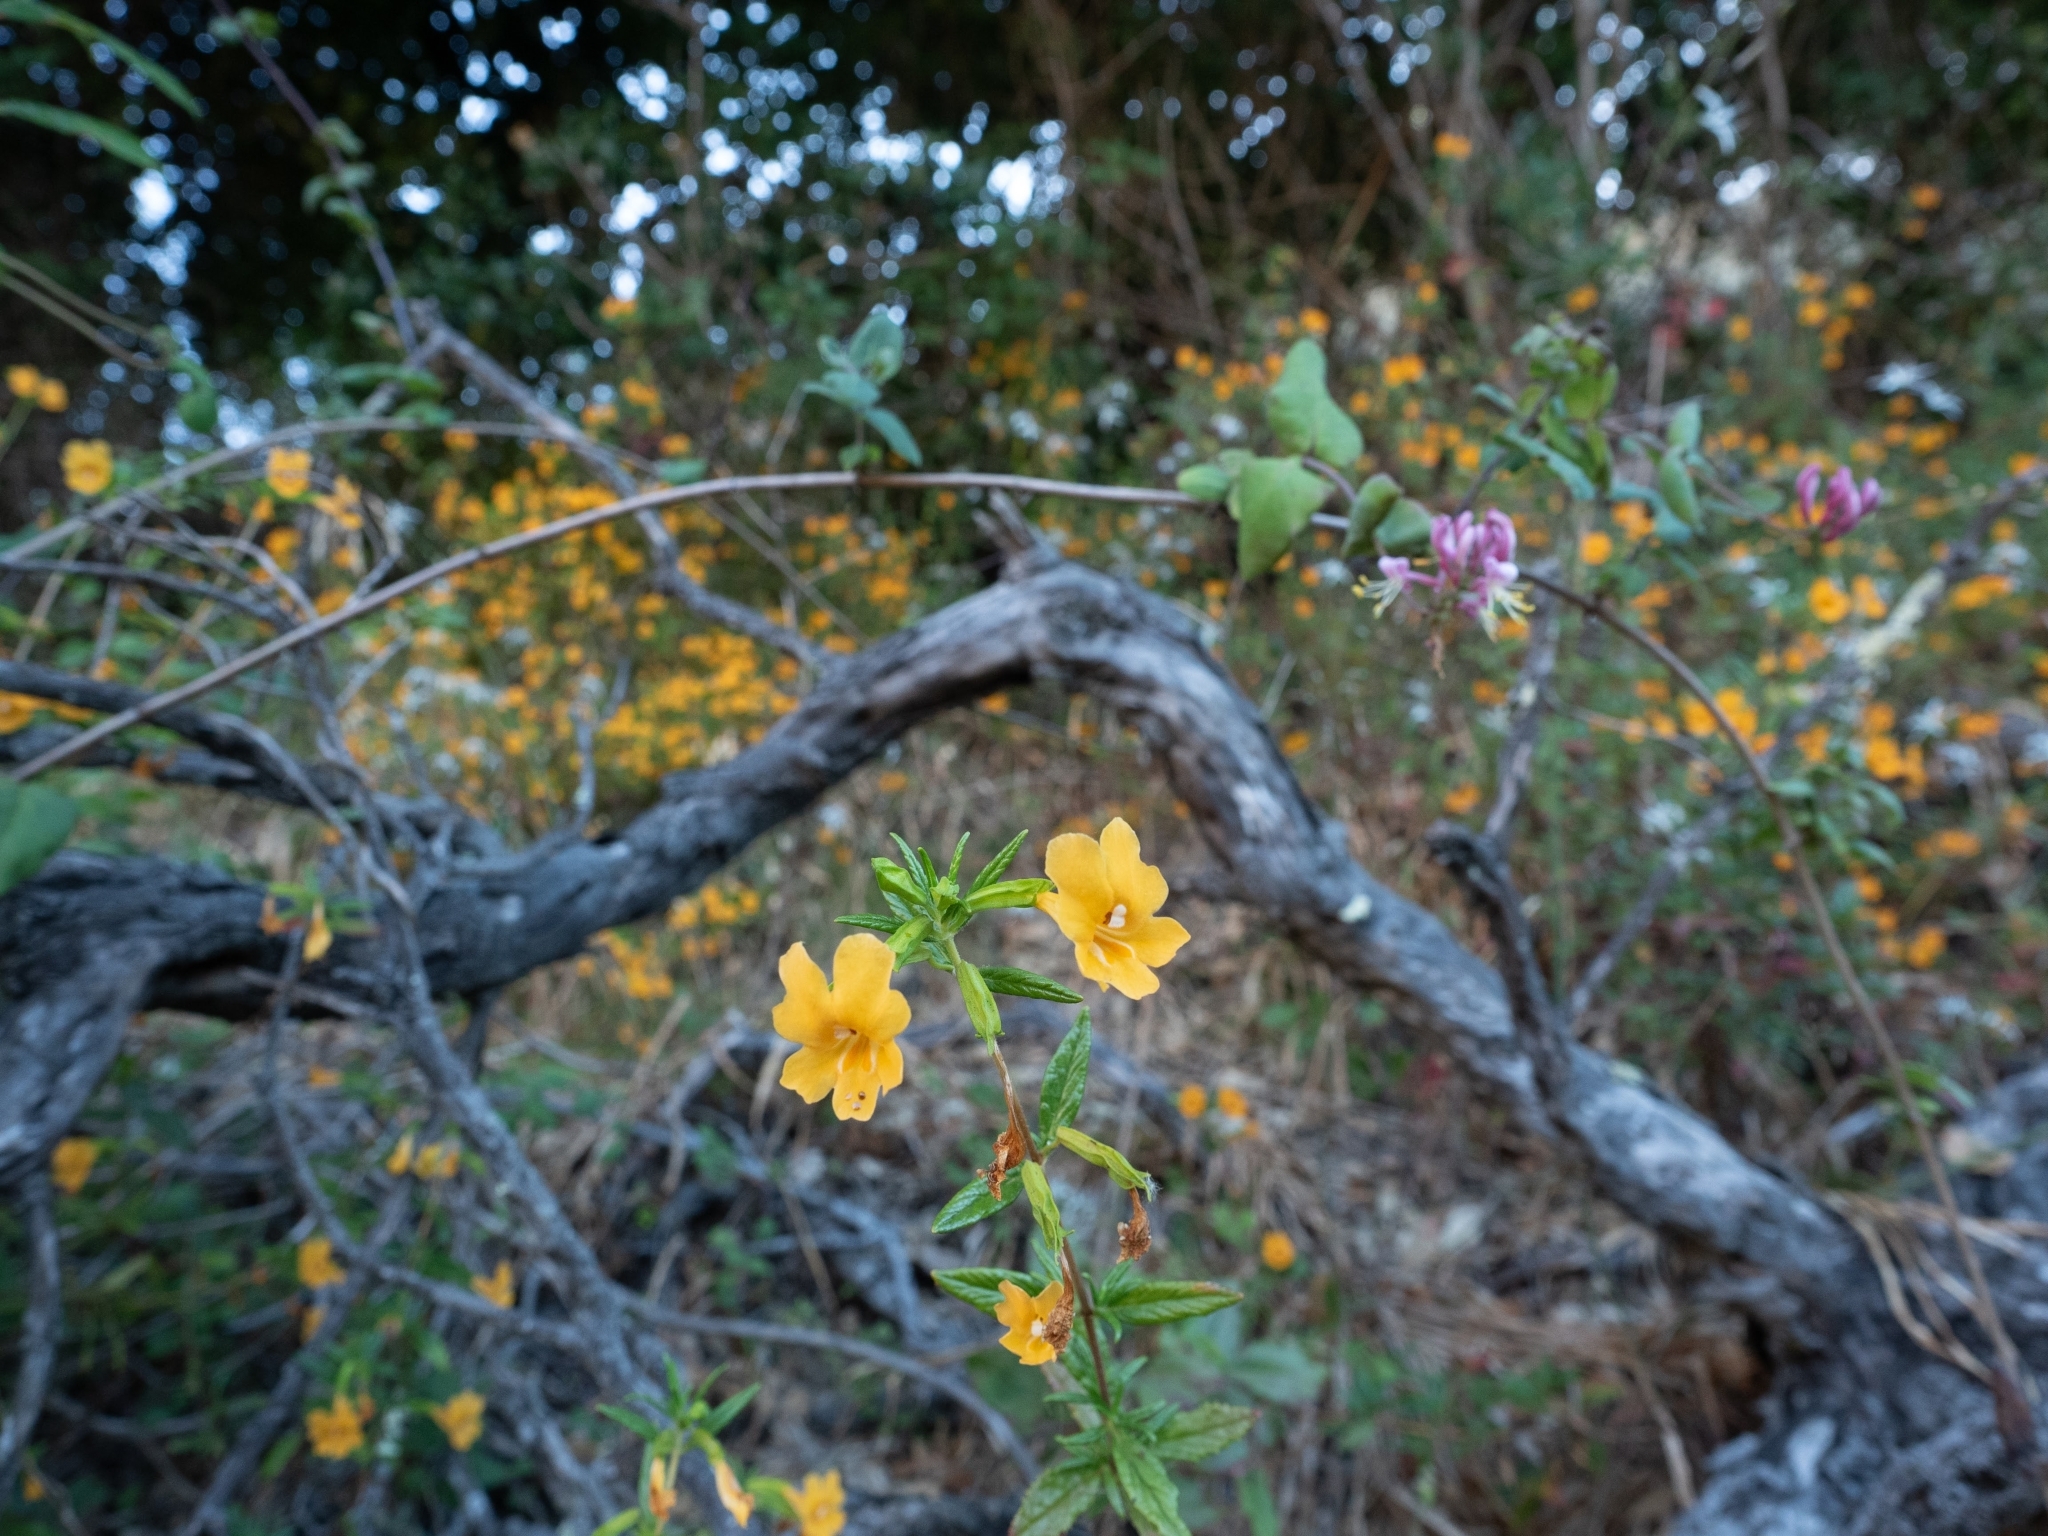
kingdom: Plantae
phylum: Tracheophyta
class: Magnoliopsida
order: Lamiales
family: Phrymaceae
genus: Diplacus
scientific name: Diplacus aurantiacus
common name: Bush monkey-flower
